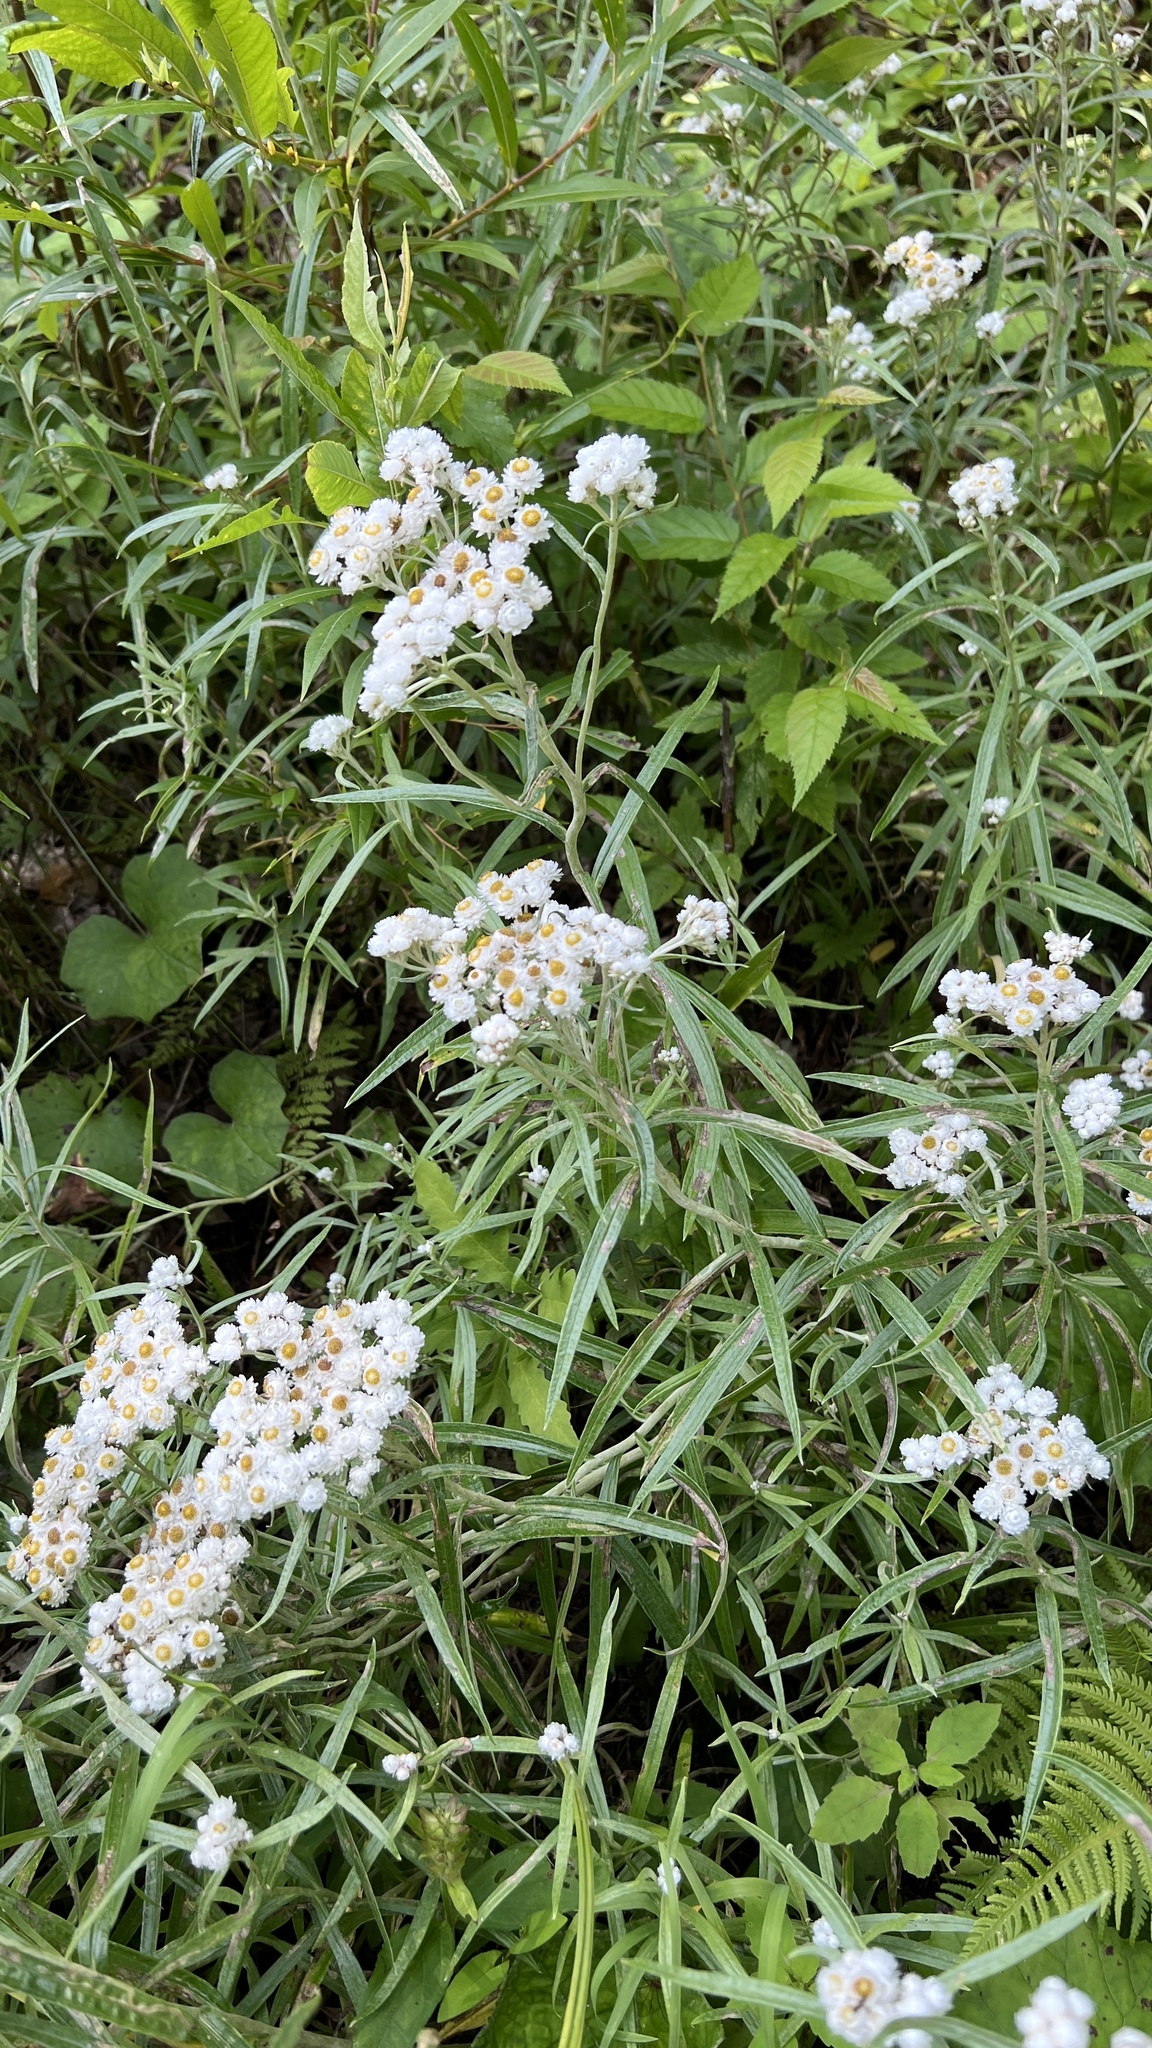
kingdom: Plantae
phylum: Tracheophyta
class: Magnoliopsida
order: Asterales
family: Asteraceae
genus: Anaphalis
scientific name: Anaphalis margaritacea
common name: Pearly everlasting
